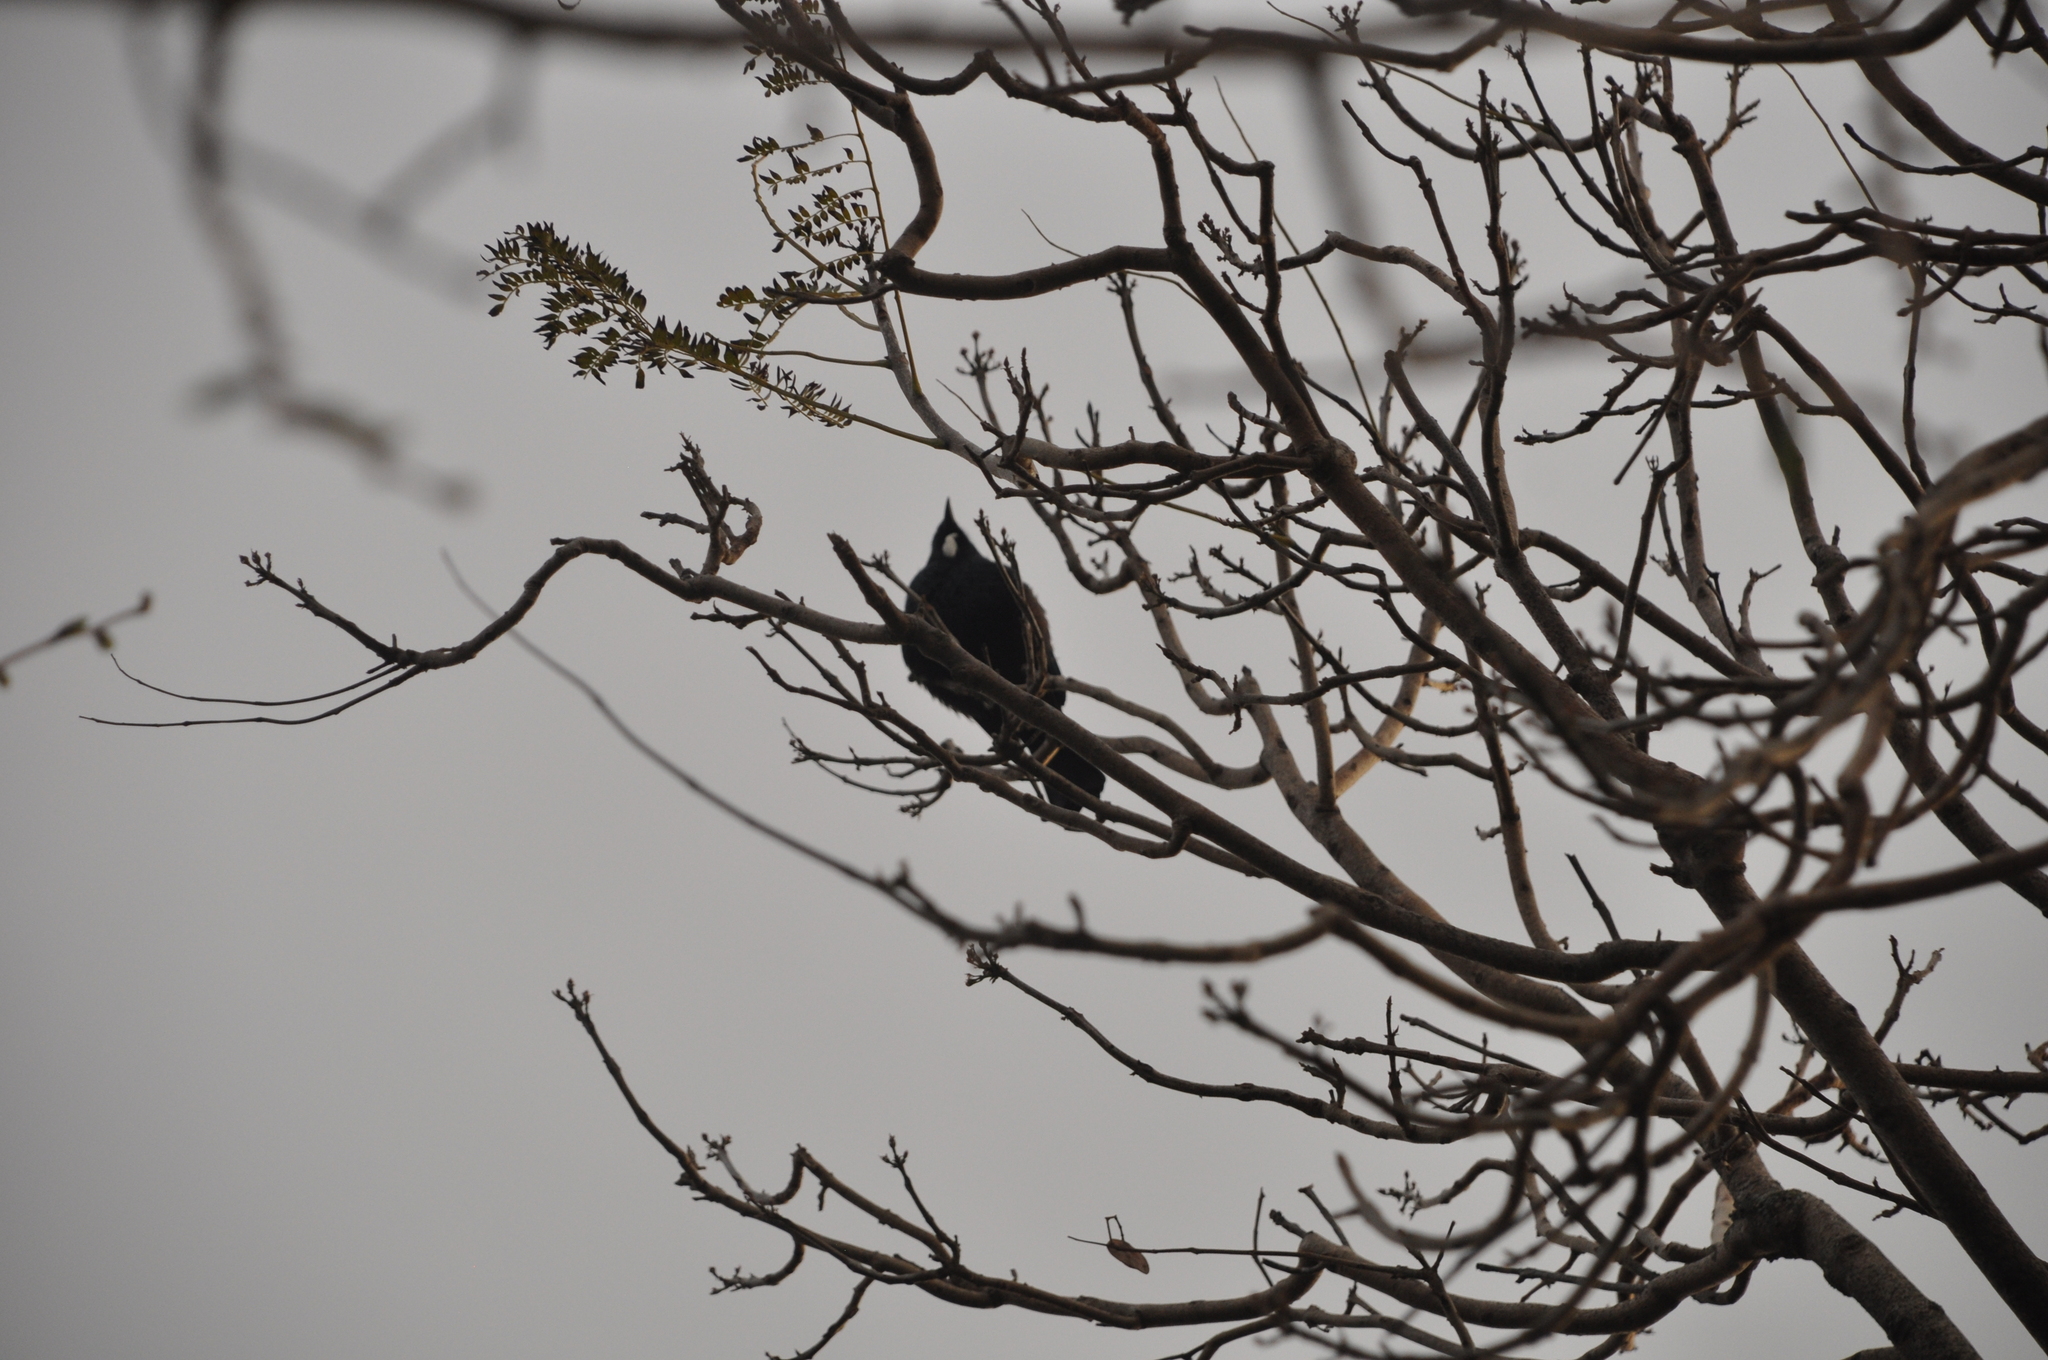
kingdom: Animalia
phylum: Chordata
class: Aves
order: Passeriformes
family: Meliphagidae
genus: Prosthemadera
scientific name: Prosthemadera novaeseelandiae
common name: Tui
